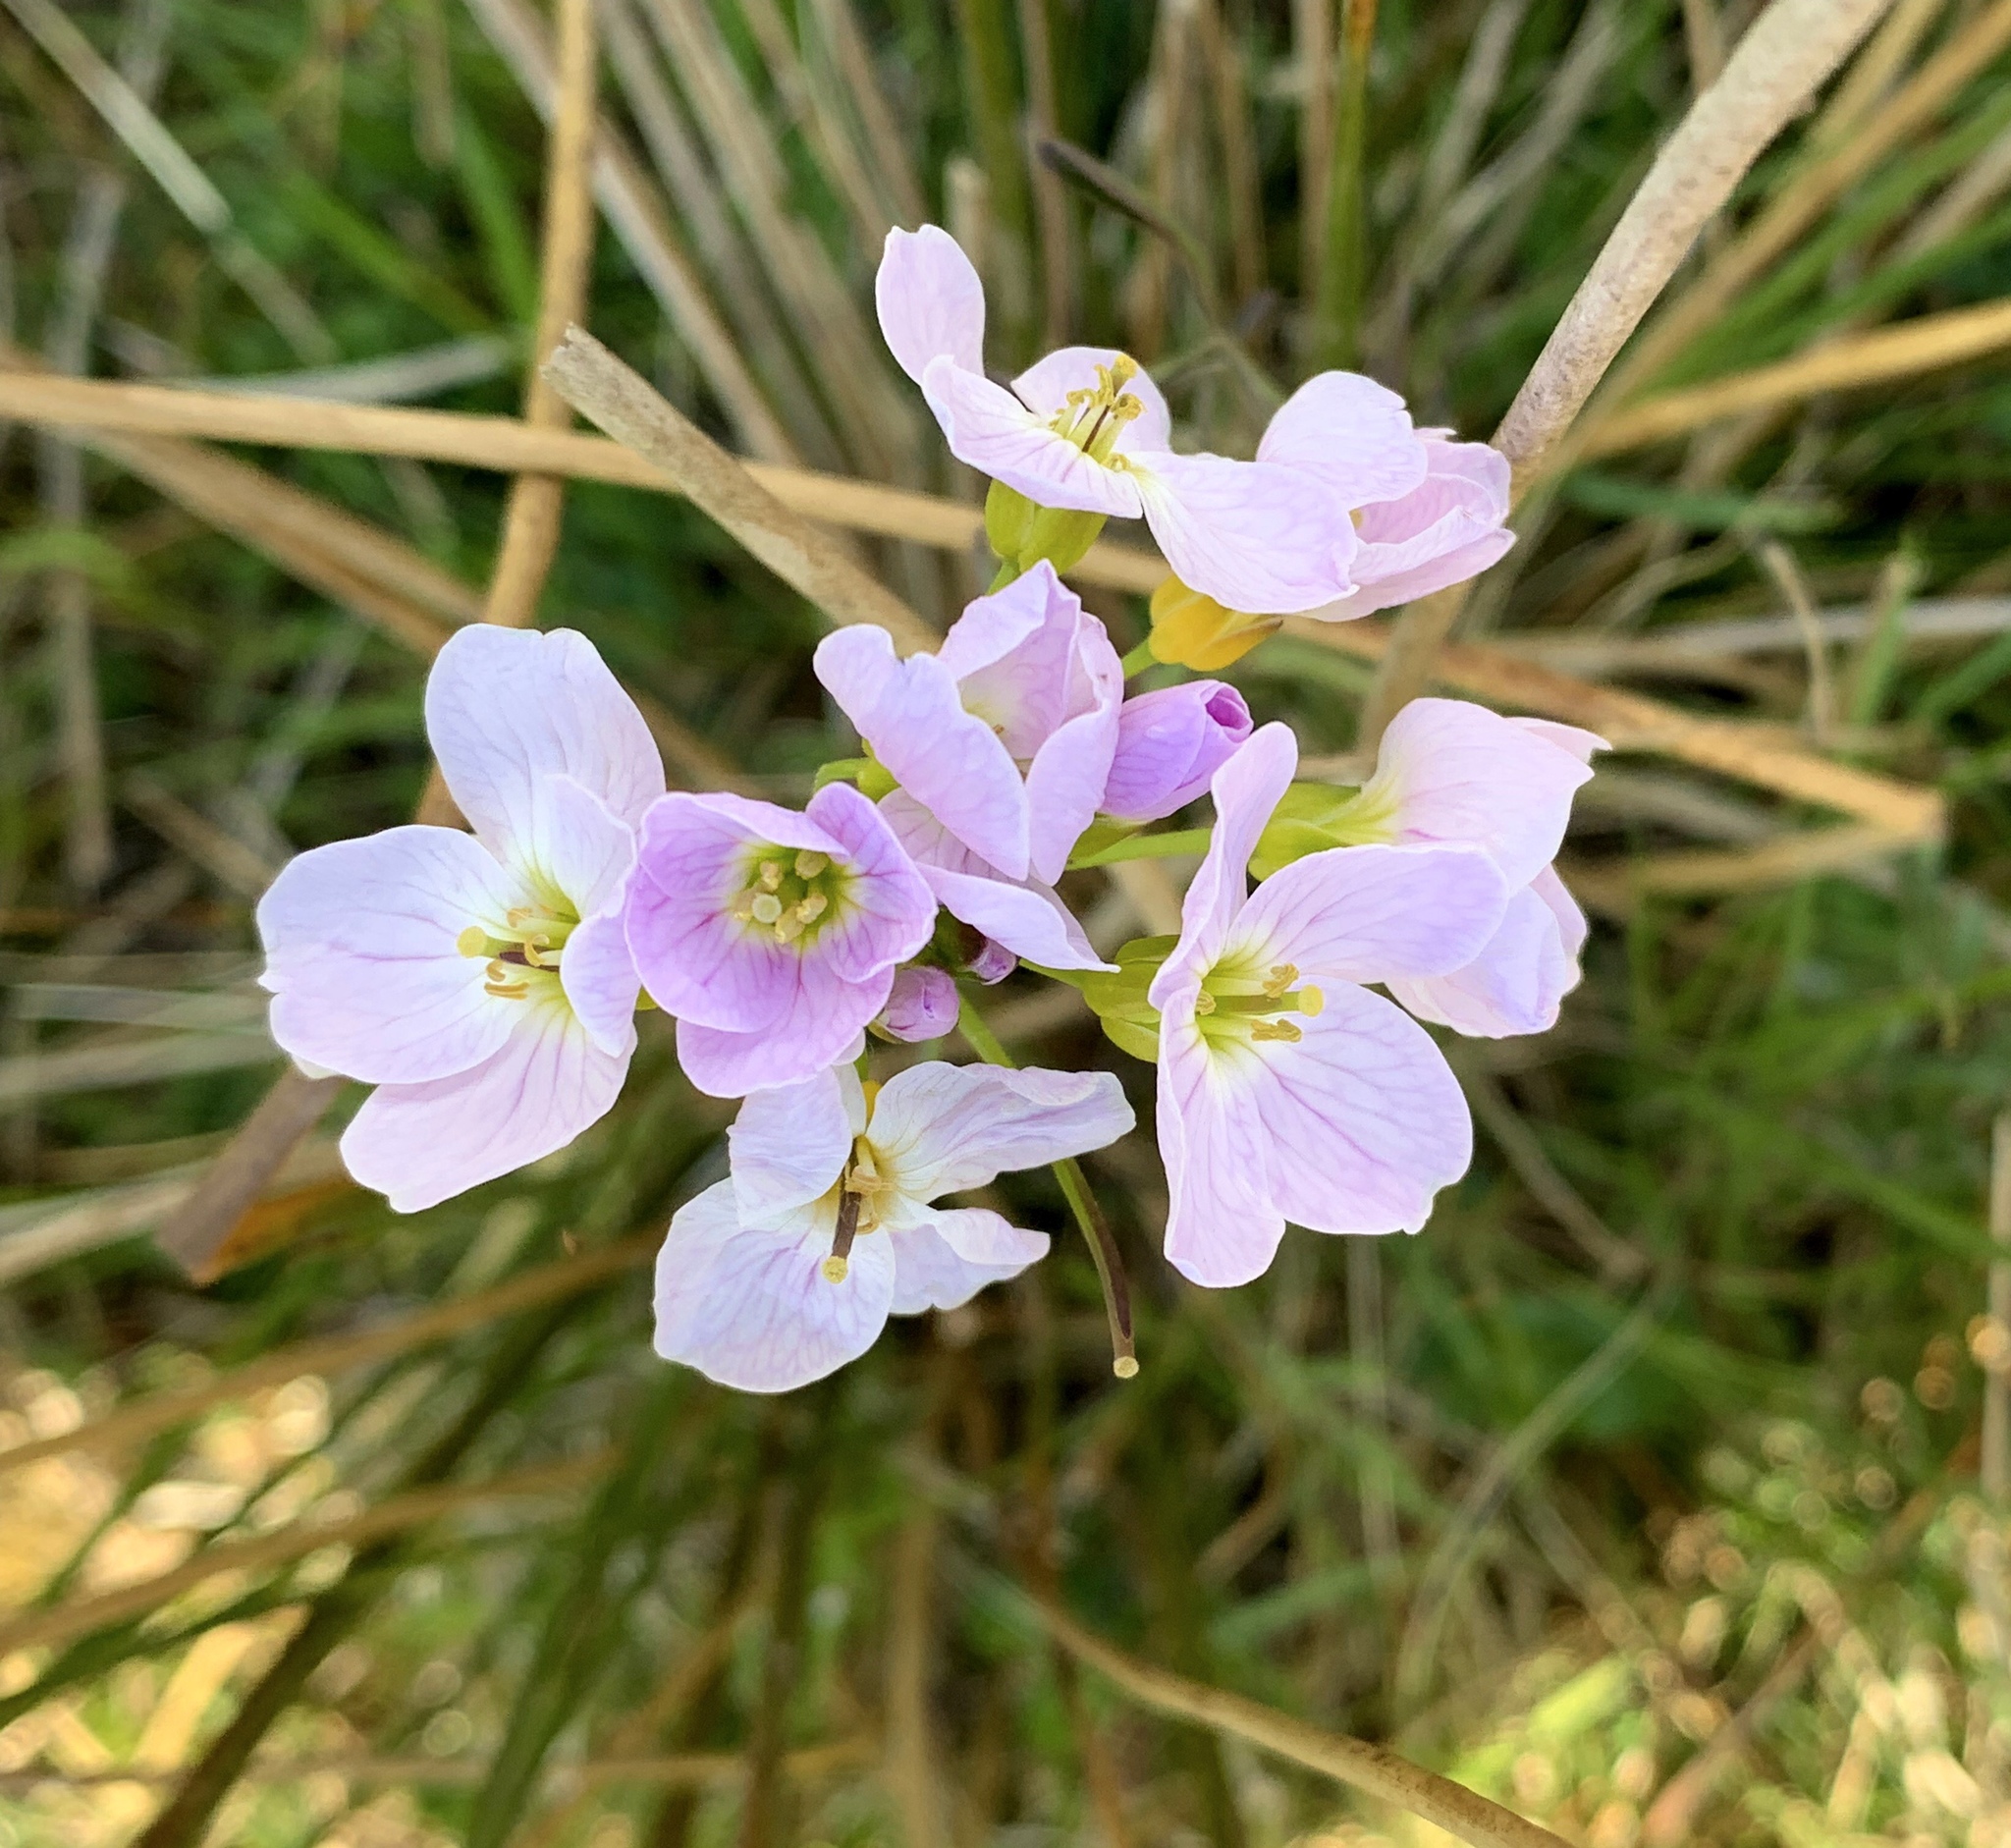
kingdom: Plantae
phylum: Tracheophyta
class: Magnoliopsida
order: Brassicales
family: Brassicaceae
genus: Cardamine
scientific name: Cardamine pratensis
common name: Cuckoo flower
